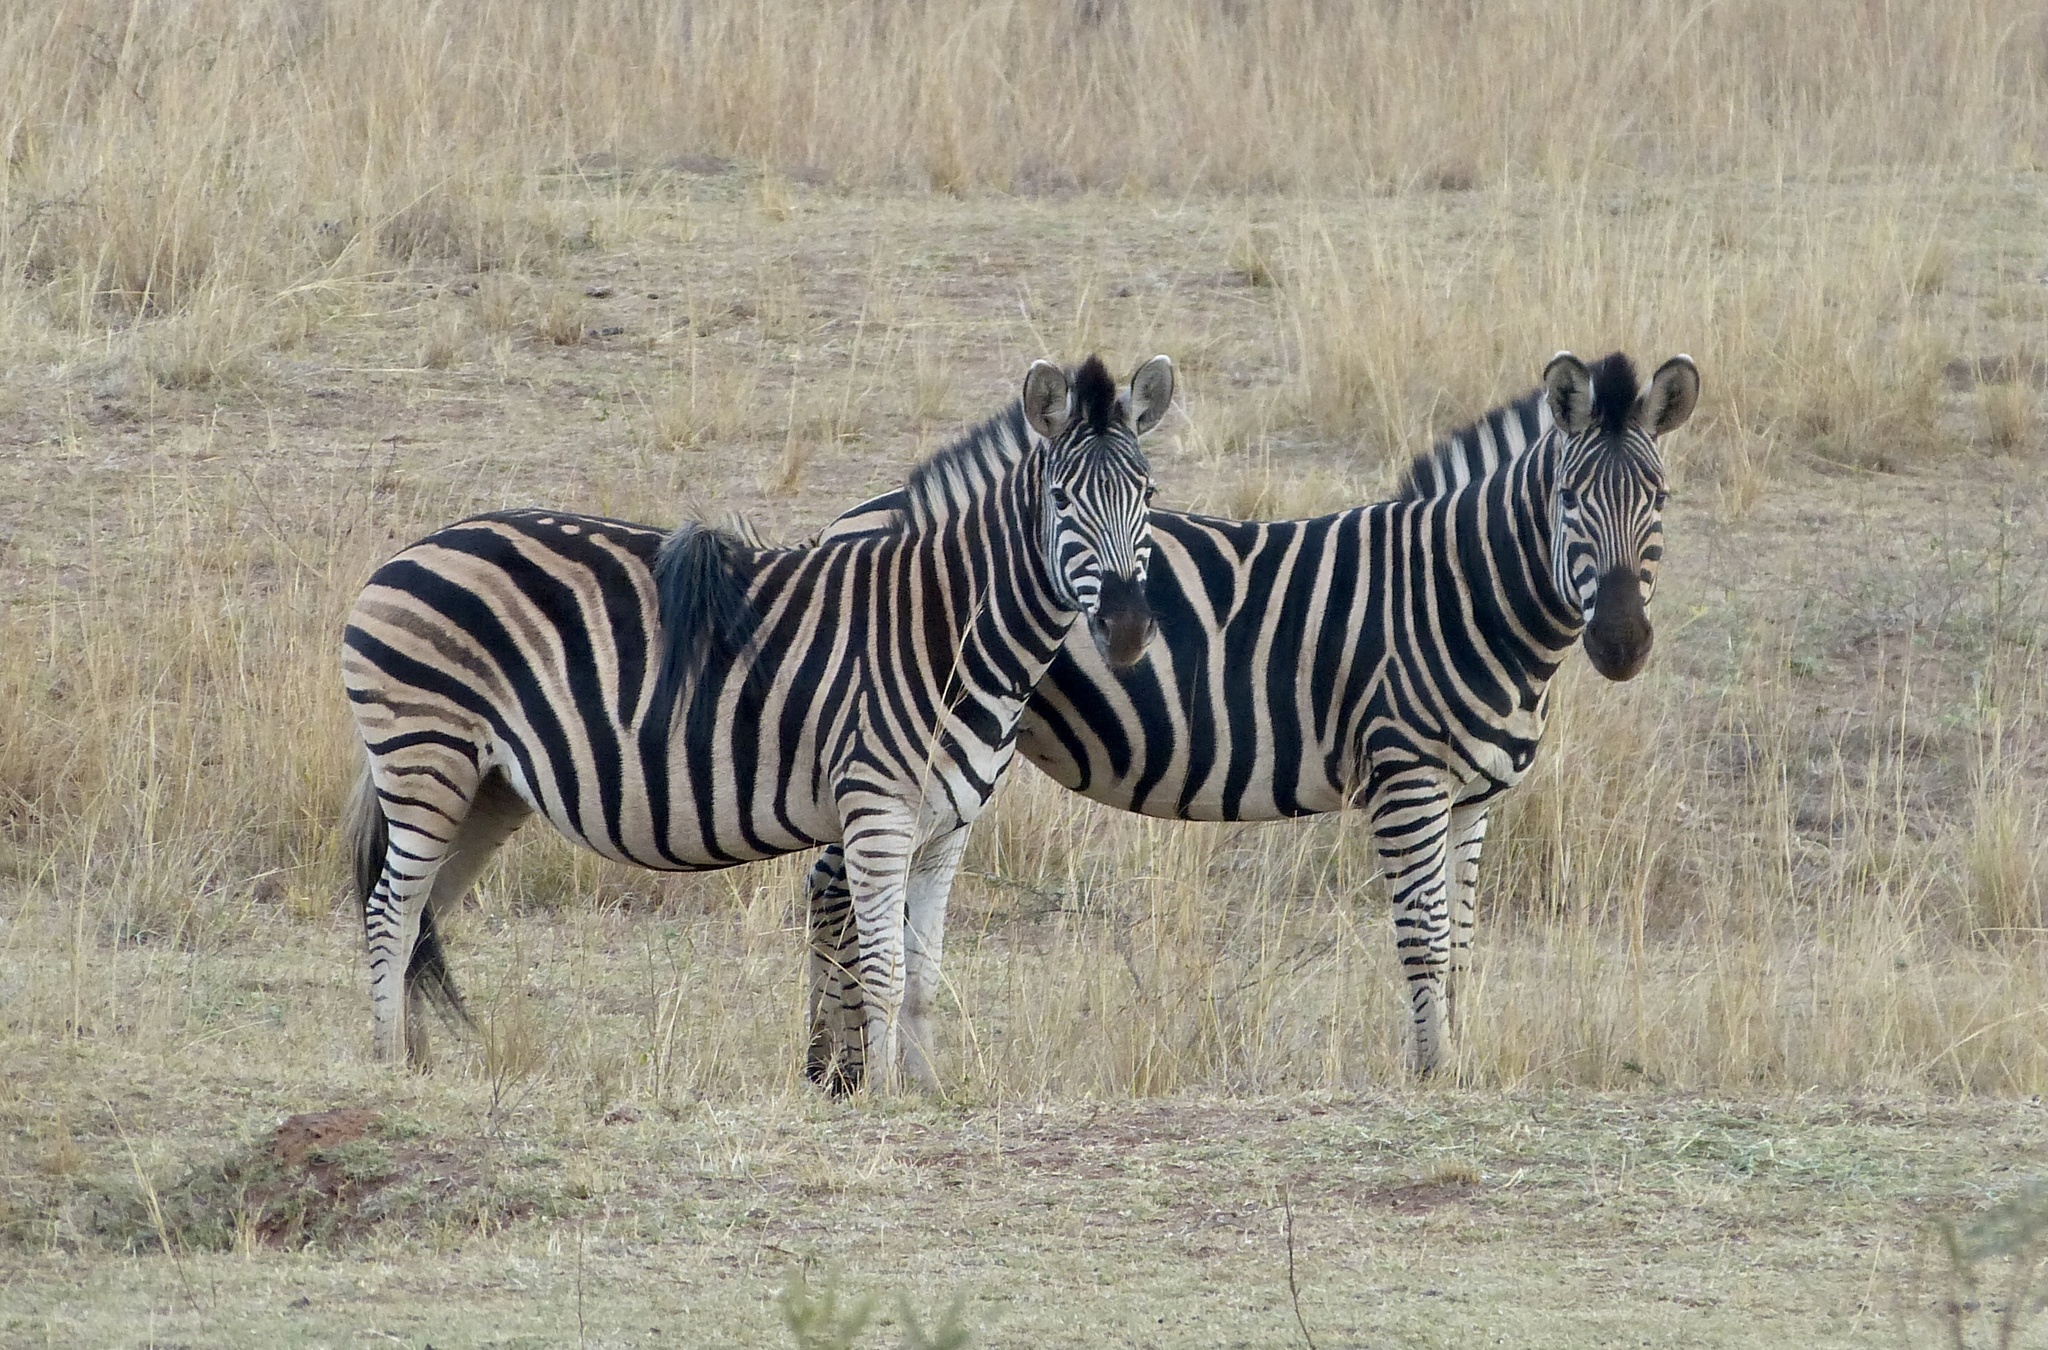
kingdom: Animalia
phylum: Chordata
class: Mammalia
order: Perissodactyla
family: Equidae
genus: Equus
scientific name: Equus quagga
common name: Plains zebra
